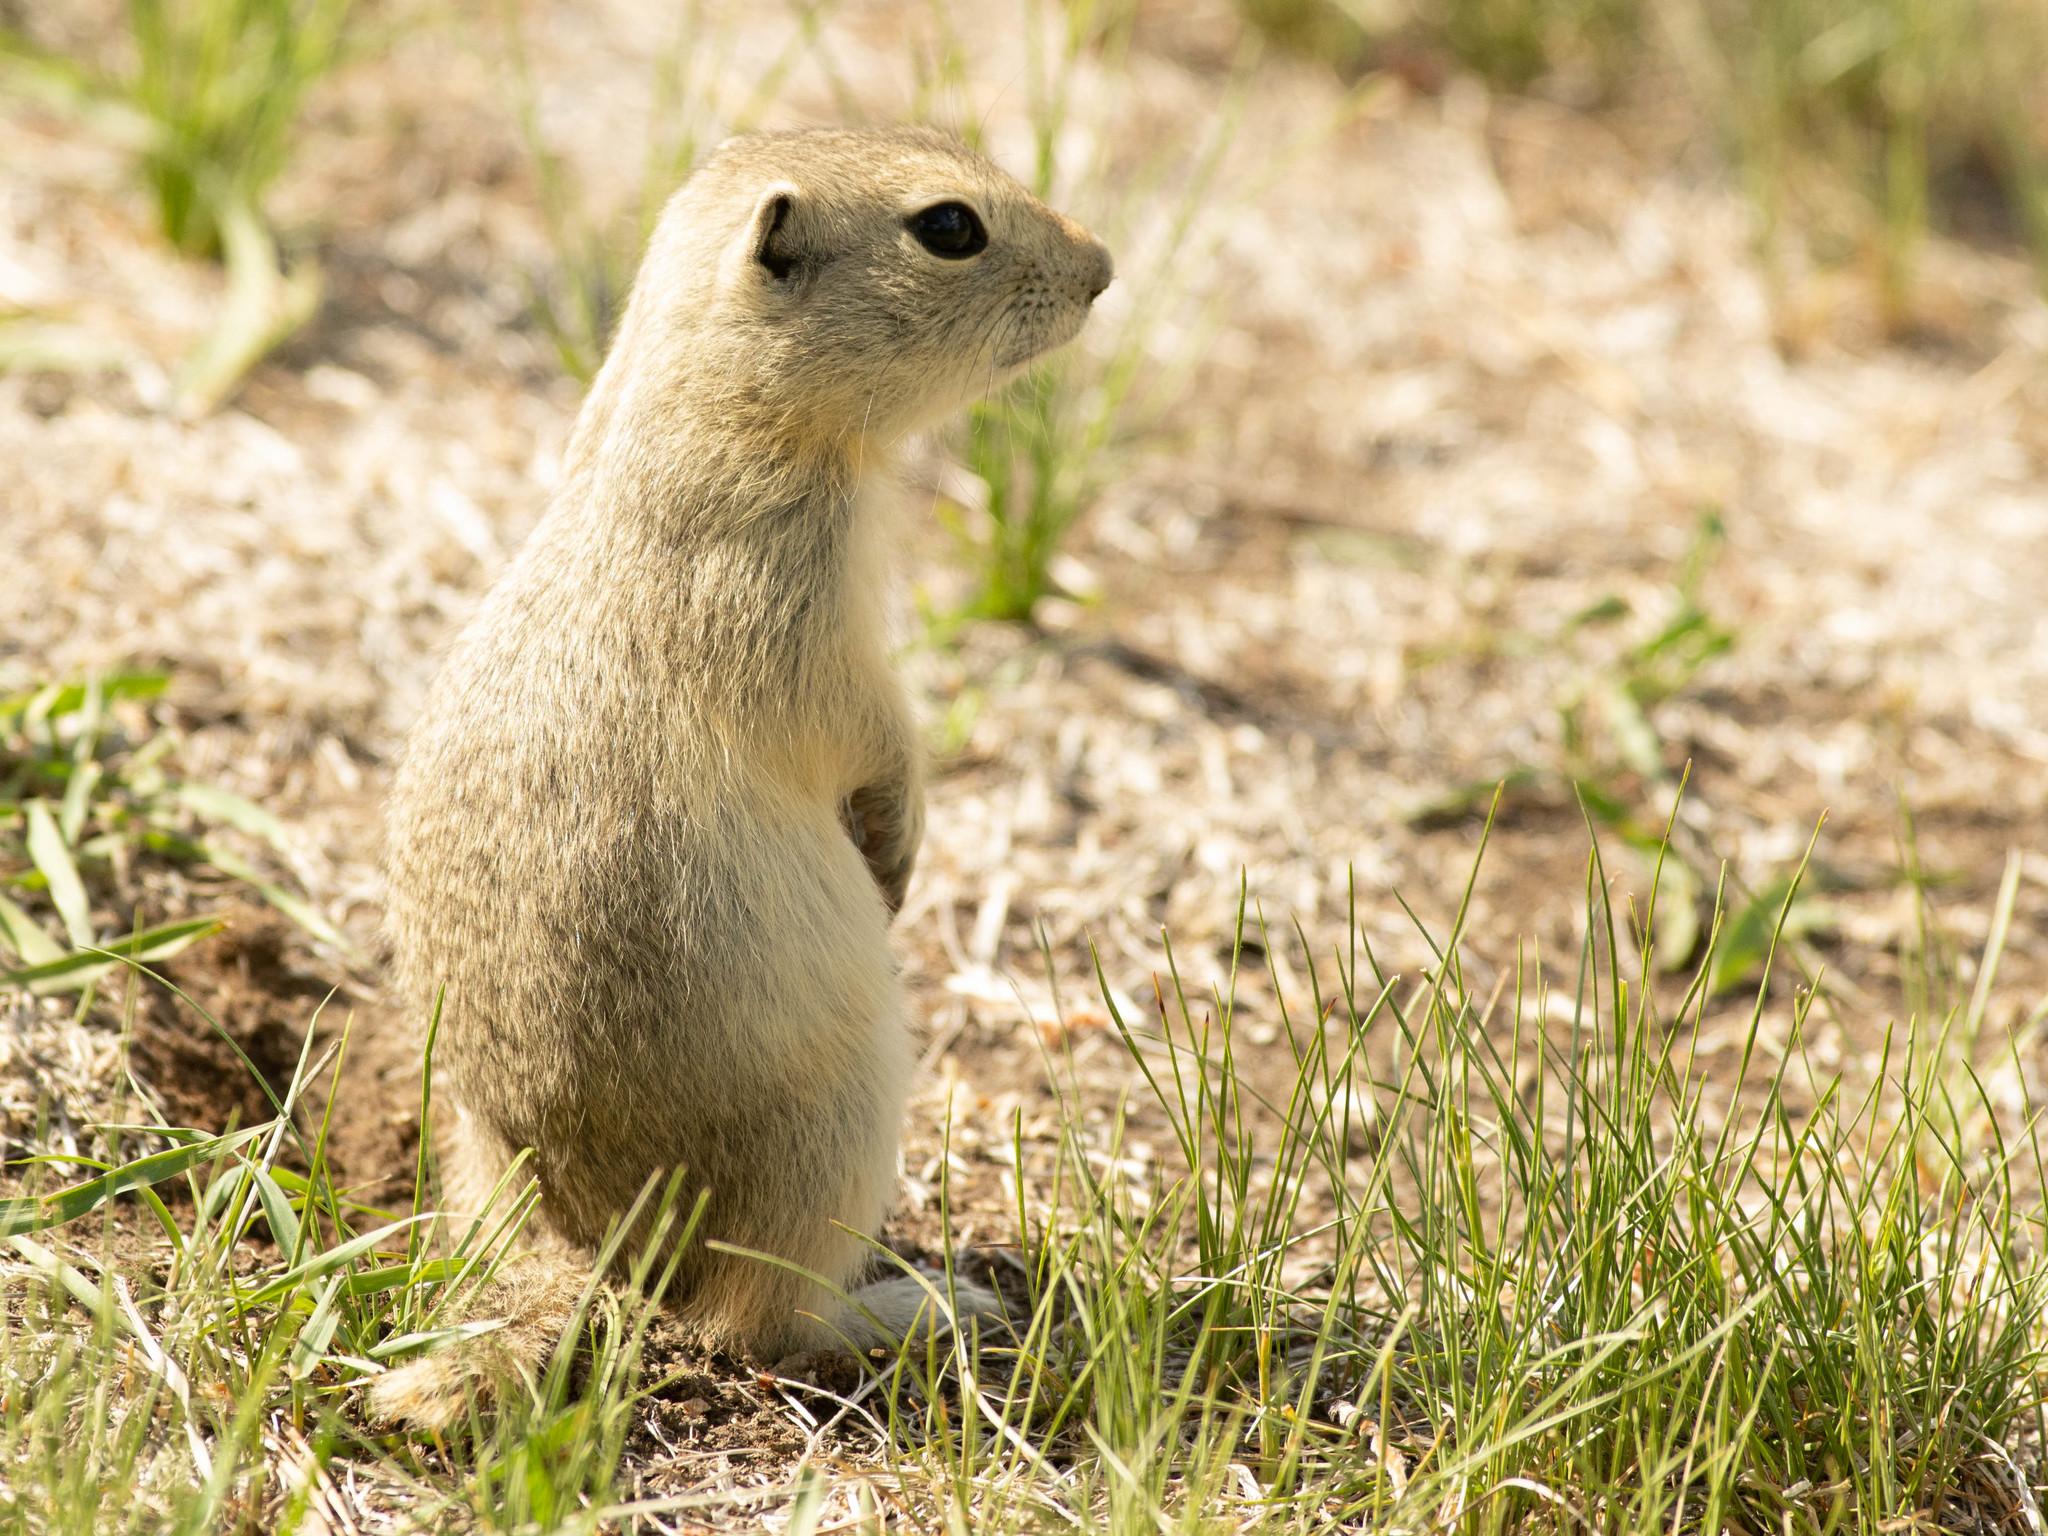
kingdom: Animalia
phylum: Chordata
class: Mammalia
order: Rodentia
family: Sciuridae
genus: Urocitellus
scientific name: Urocitellus richardsonii
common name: Richardson's ground squirrel
